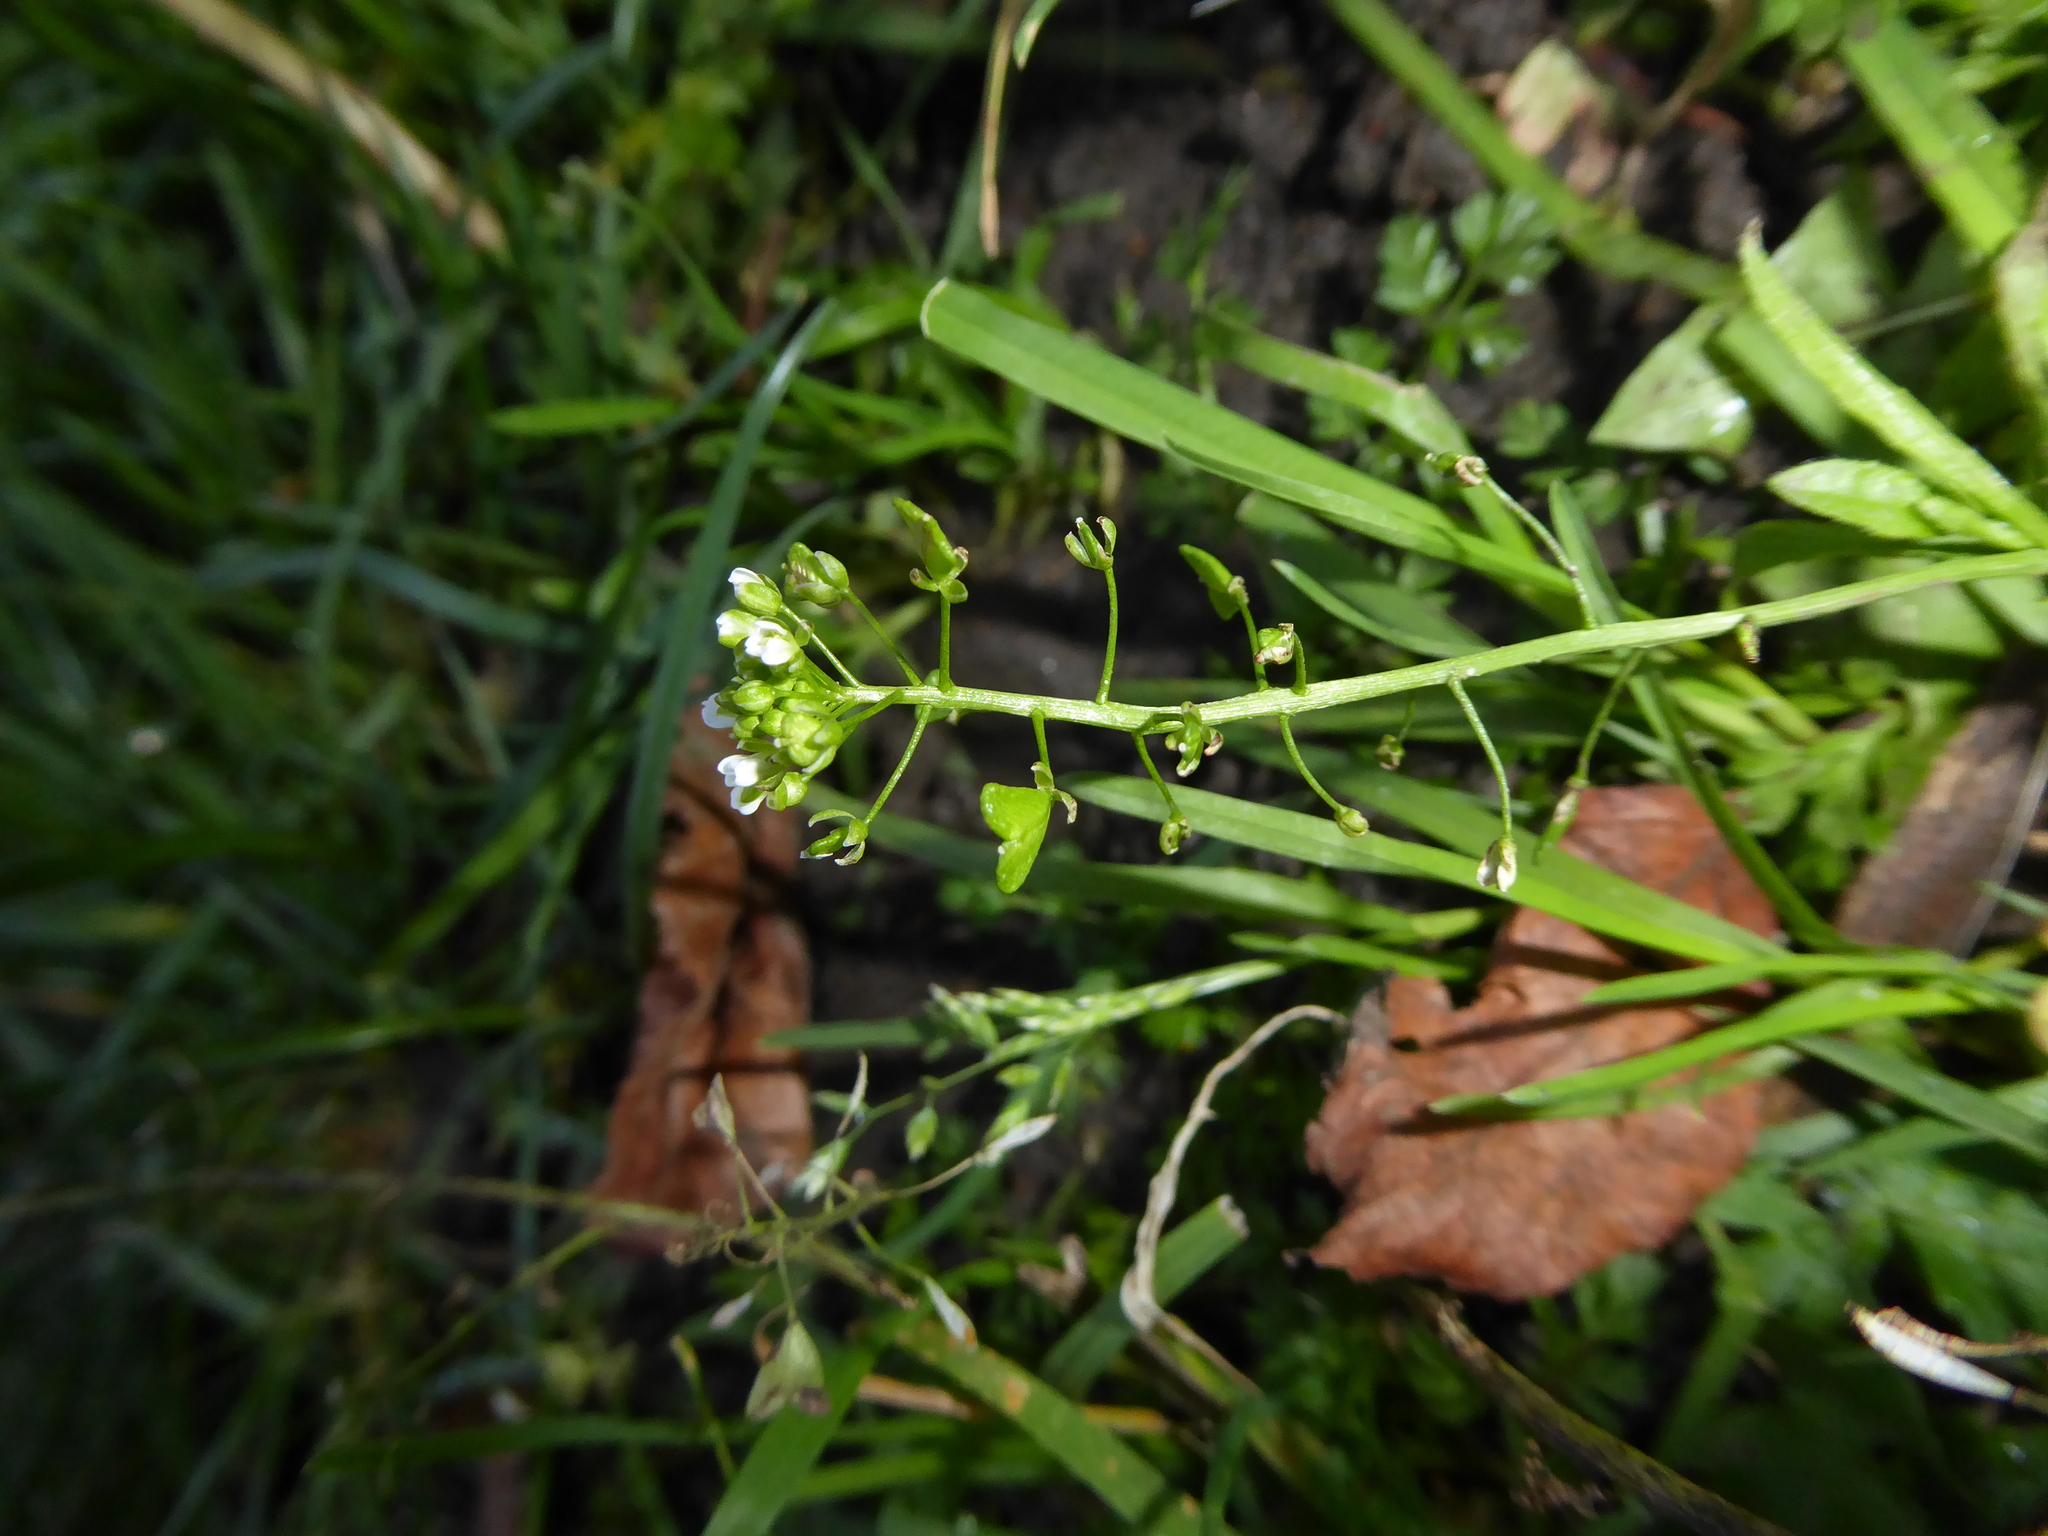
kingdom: Plantae
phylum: Tracheophyta
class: Magnoliopsida
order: Brassicales
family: Brassicaceae
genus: Capsella
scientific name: Capsella bursa-pastoris
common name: Shepherd's purse
